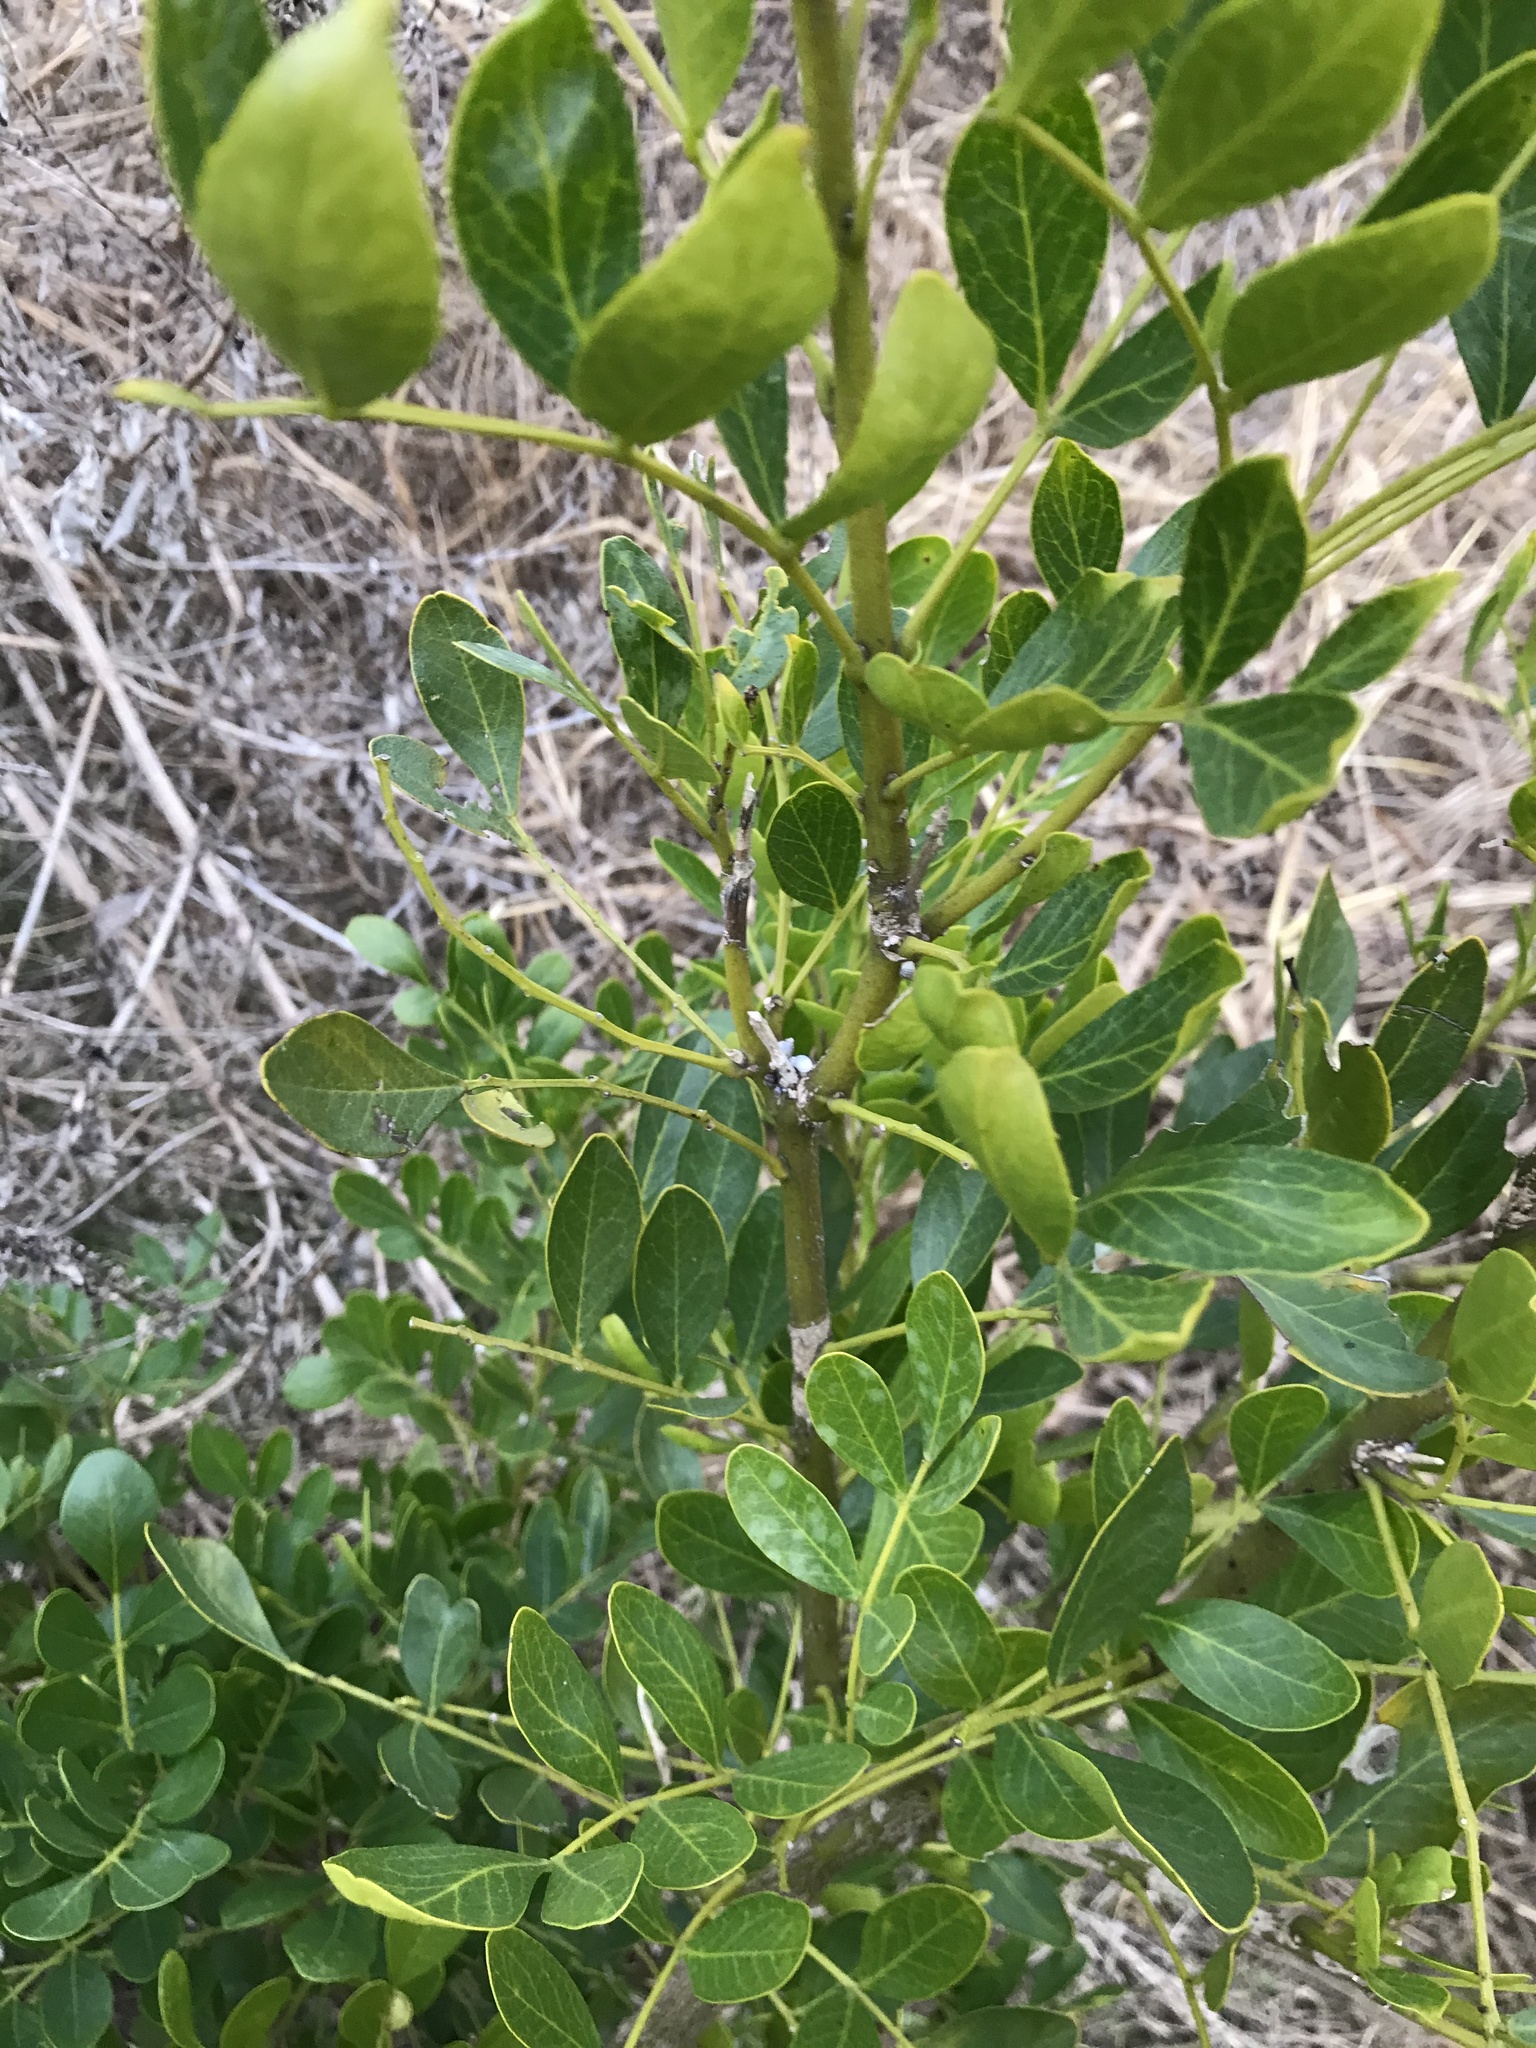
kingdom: Plantae
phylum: Tracheophyta
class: Magnoliopsida
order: Fabales
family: Fabaceae
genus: Dermatophyllum
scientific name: Dermatophyllum secundiflorum
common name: Texas-mountain-laurel
